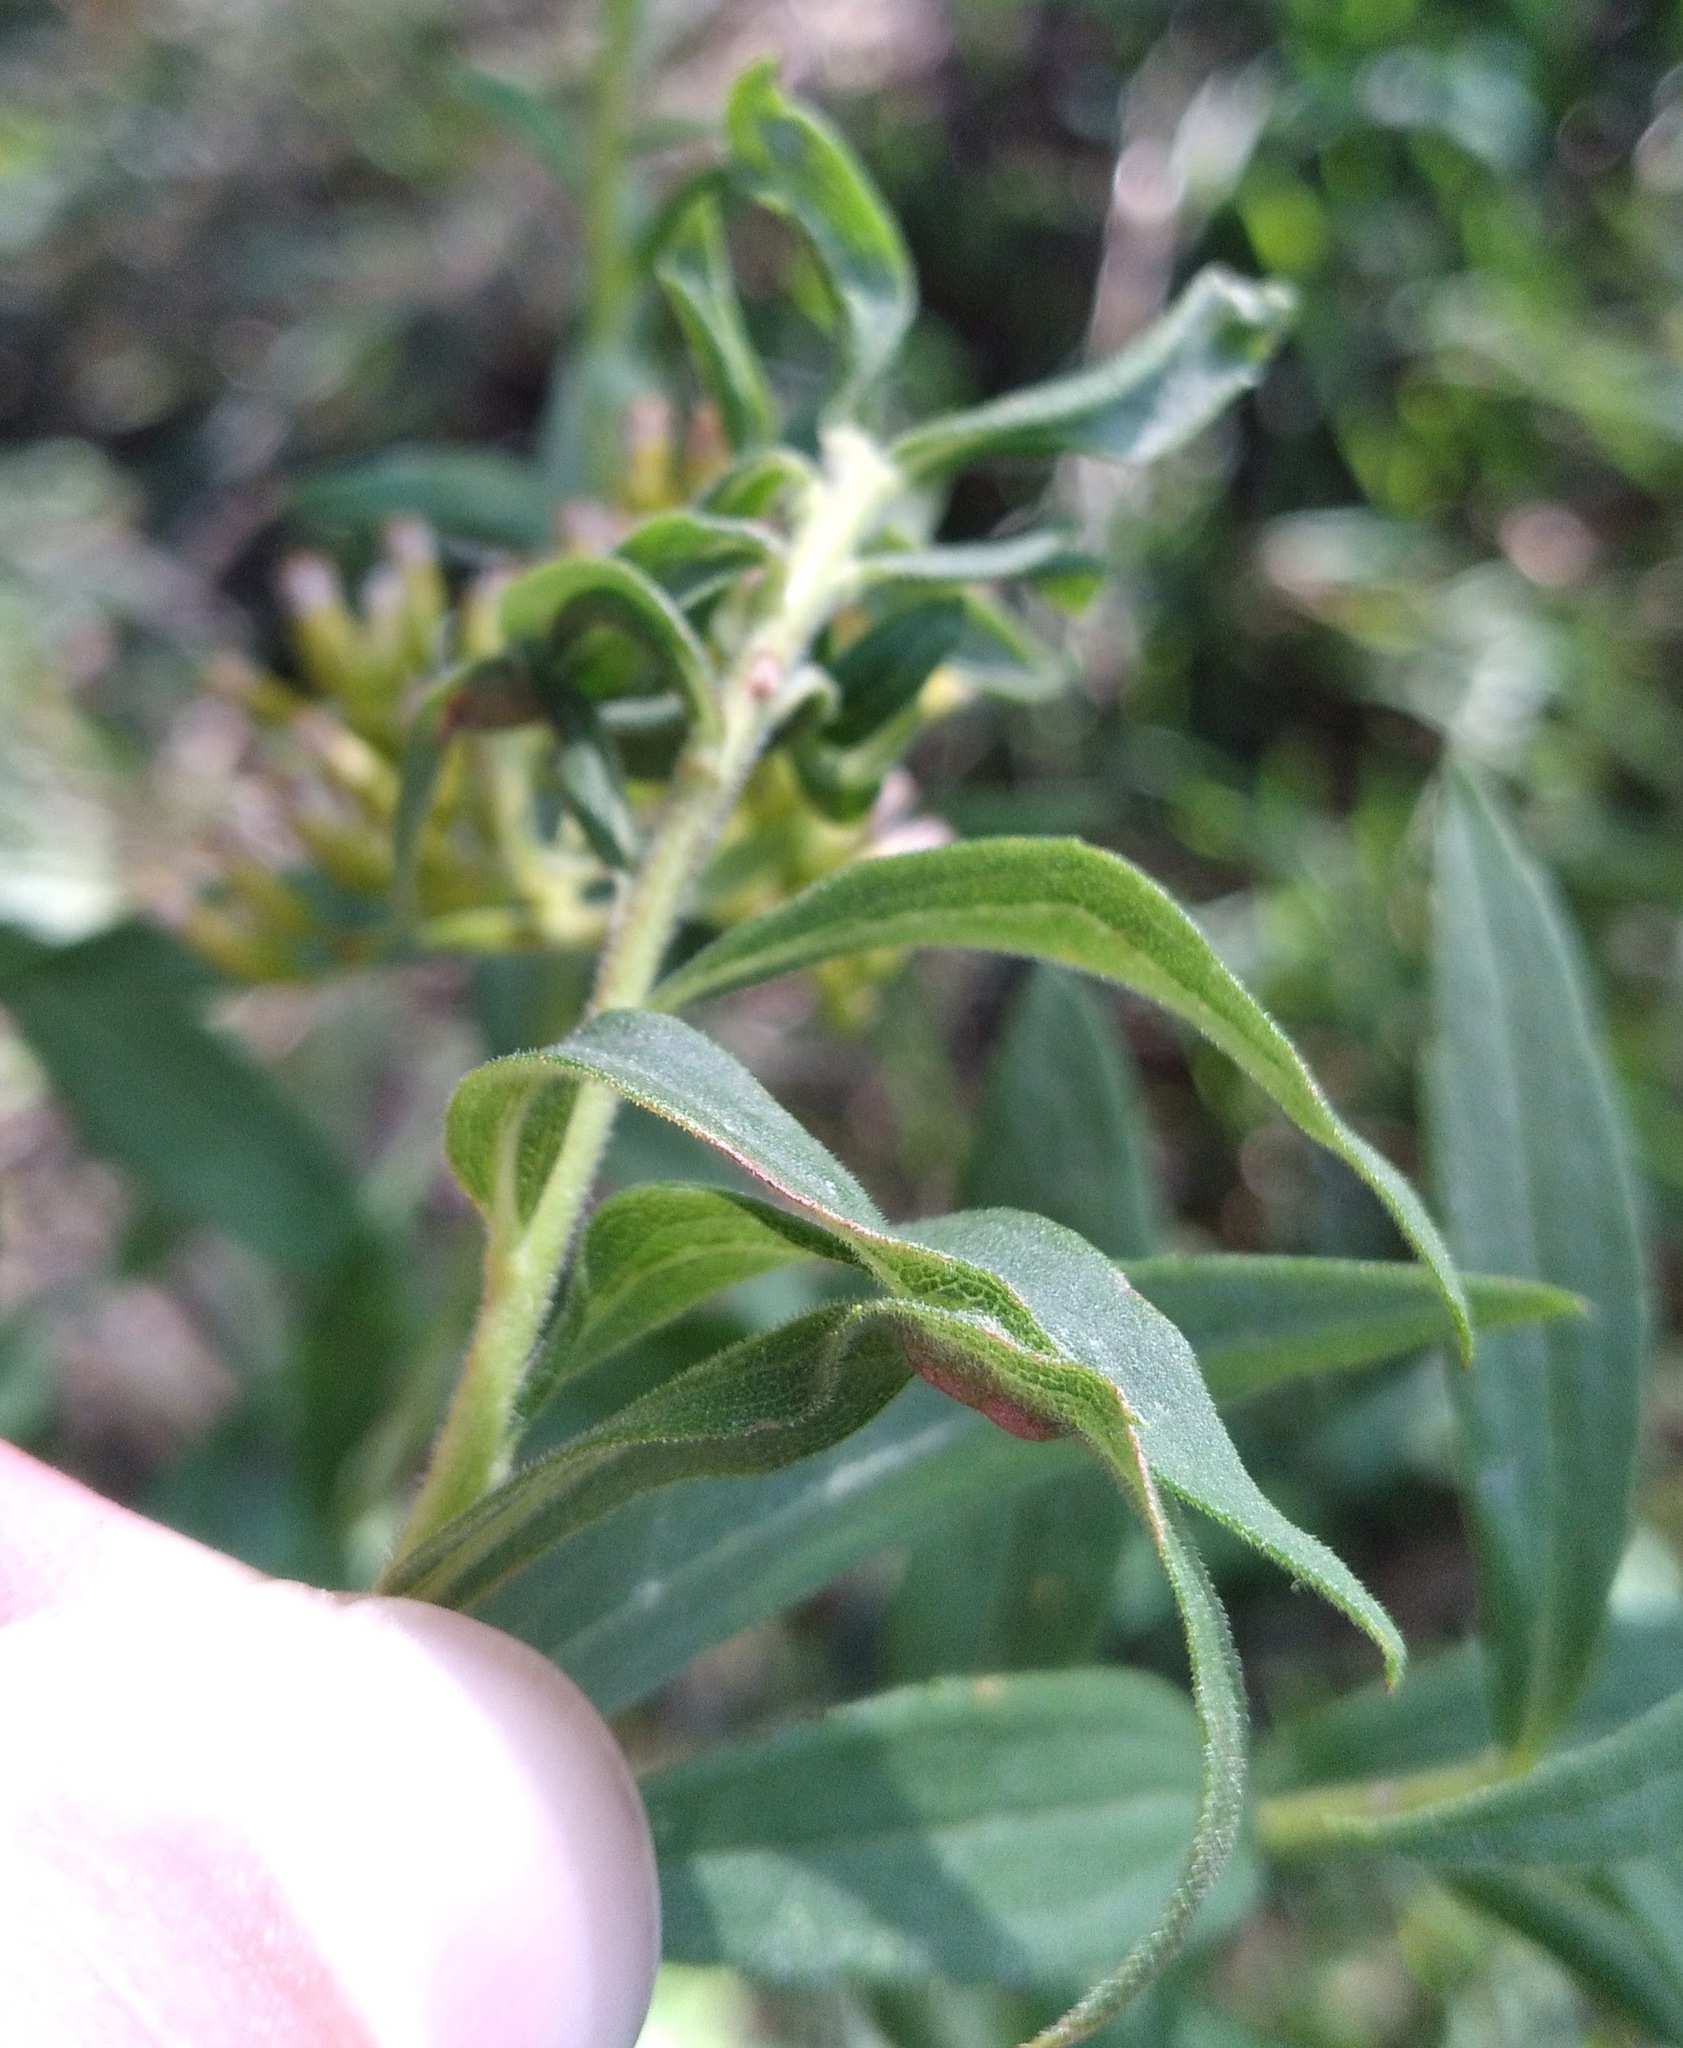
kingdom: Animalia
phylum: Arthropoda
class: Insecta
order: Diptera
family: Cecidomyiidae
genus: Asphondylia
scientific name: Asphondylia solidaginis
